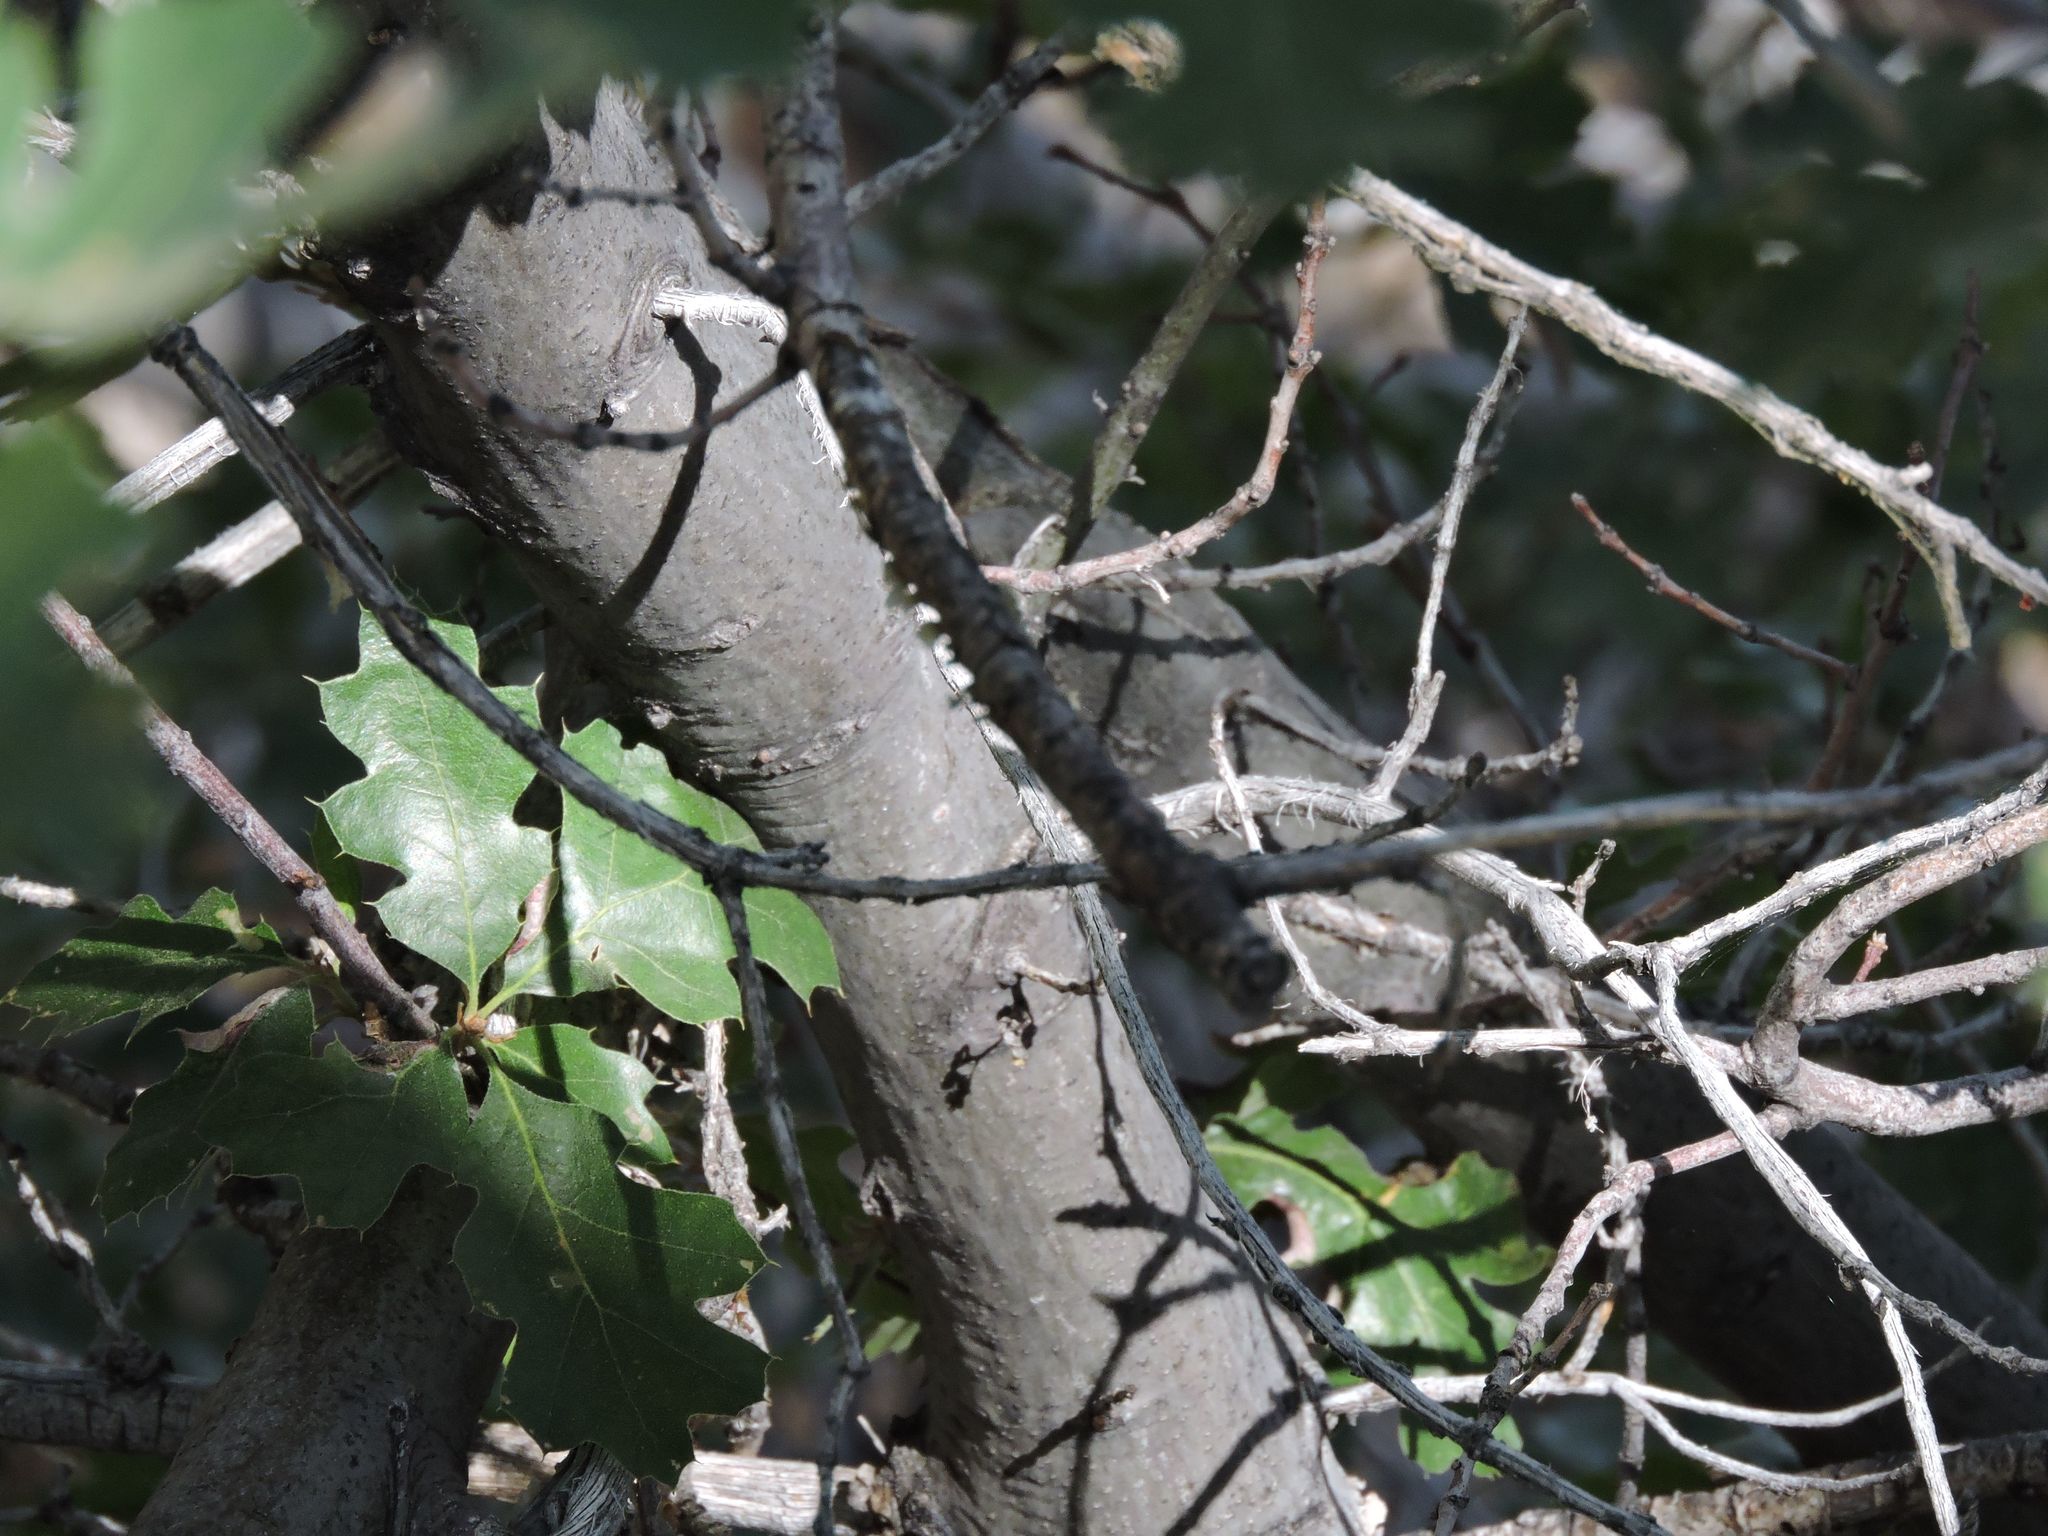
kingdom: Plantae
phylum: Tracheophyta
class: Magnoliopsida
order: Fagales
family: Fagaceae
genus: Quercus
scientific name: Quercus kelloggii
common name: California black oak
